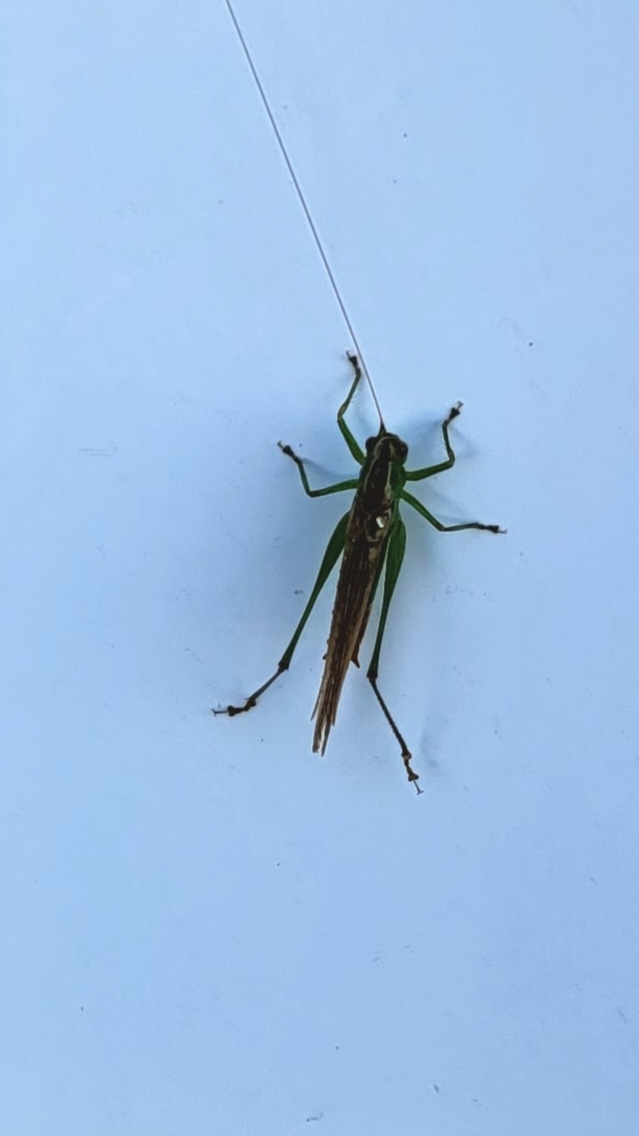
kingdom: Animalia
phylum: Arthropoda
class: Insecta
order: Orthoptera
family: Tettigoniidae
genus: Conocephalus
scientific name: Conocephalus brevipennis
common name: Short-winged meadow katydid
